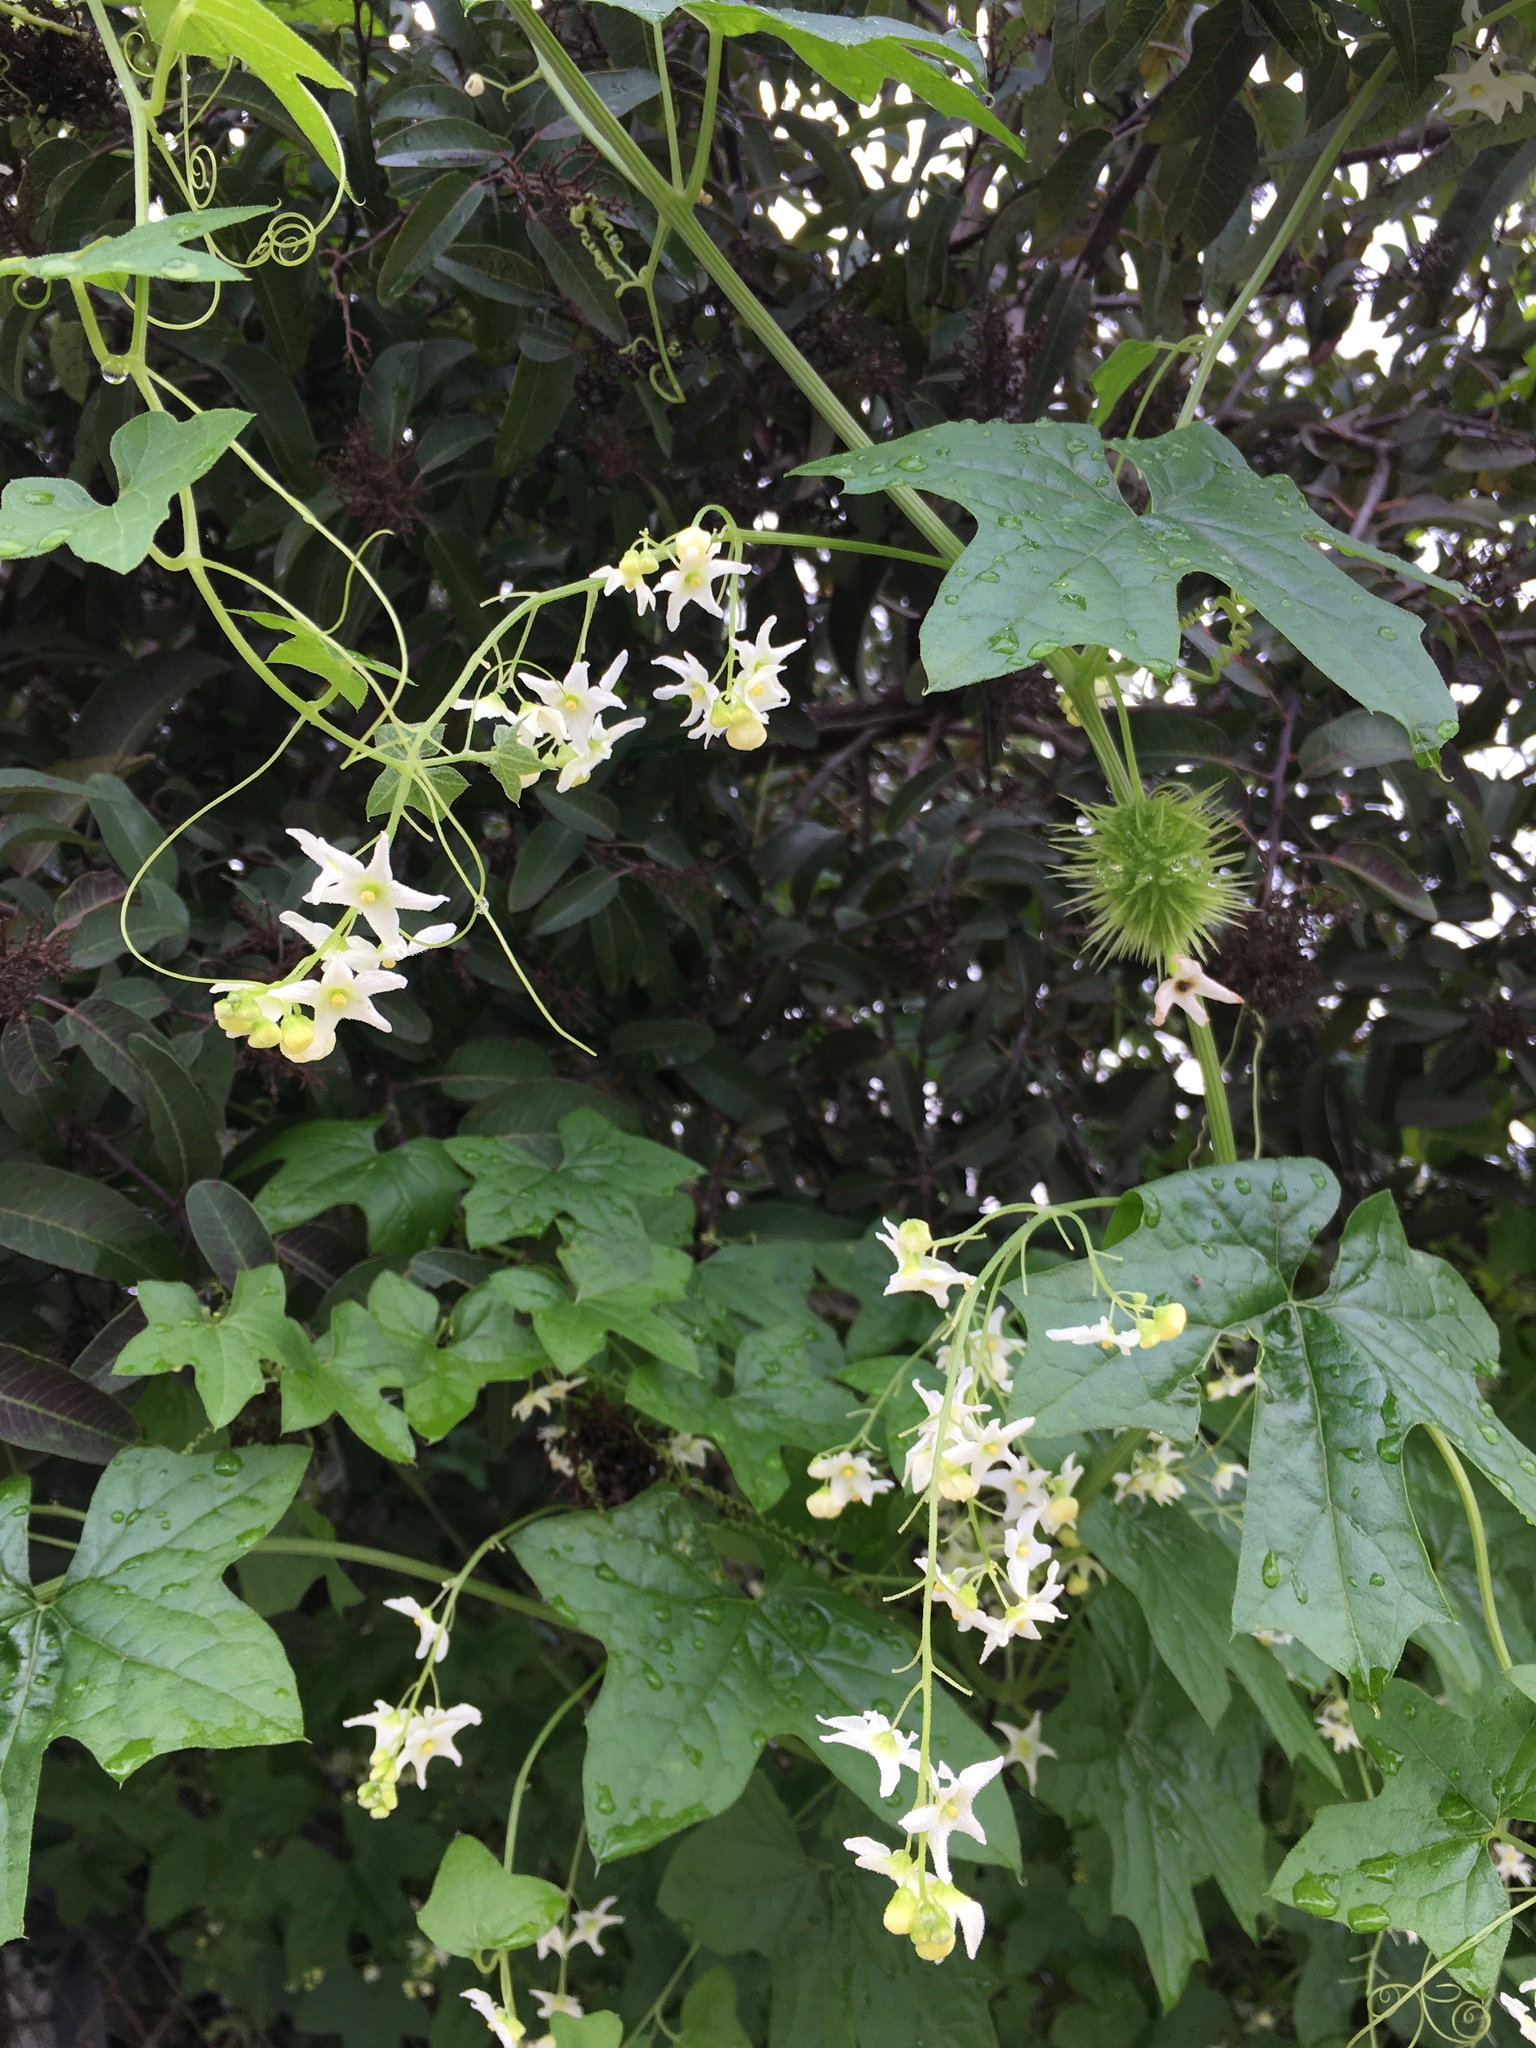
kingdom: Plantae
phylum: Tracheophyta
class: Magnoliopsida
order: Cucurbitales
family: Cucurbitaceae
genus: Marah
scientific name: Marah macrocarpa
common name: Cucamonga manroot
